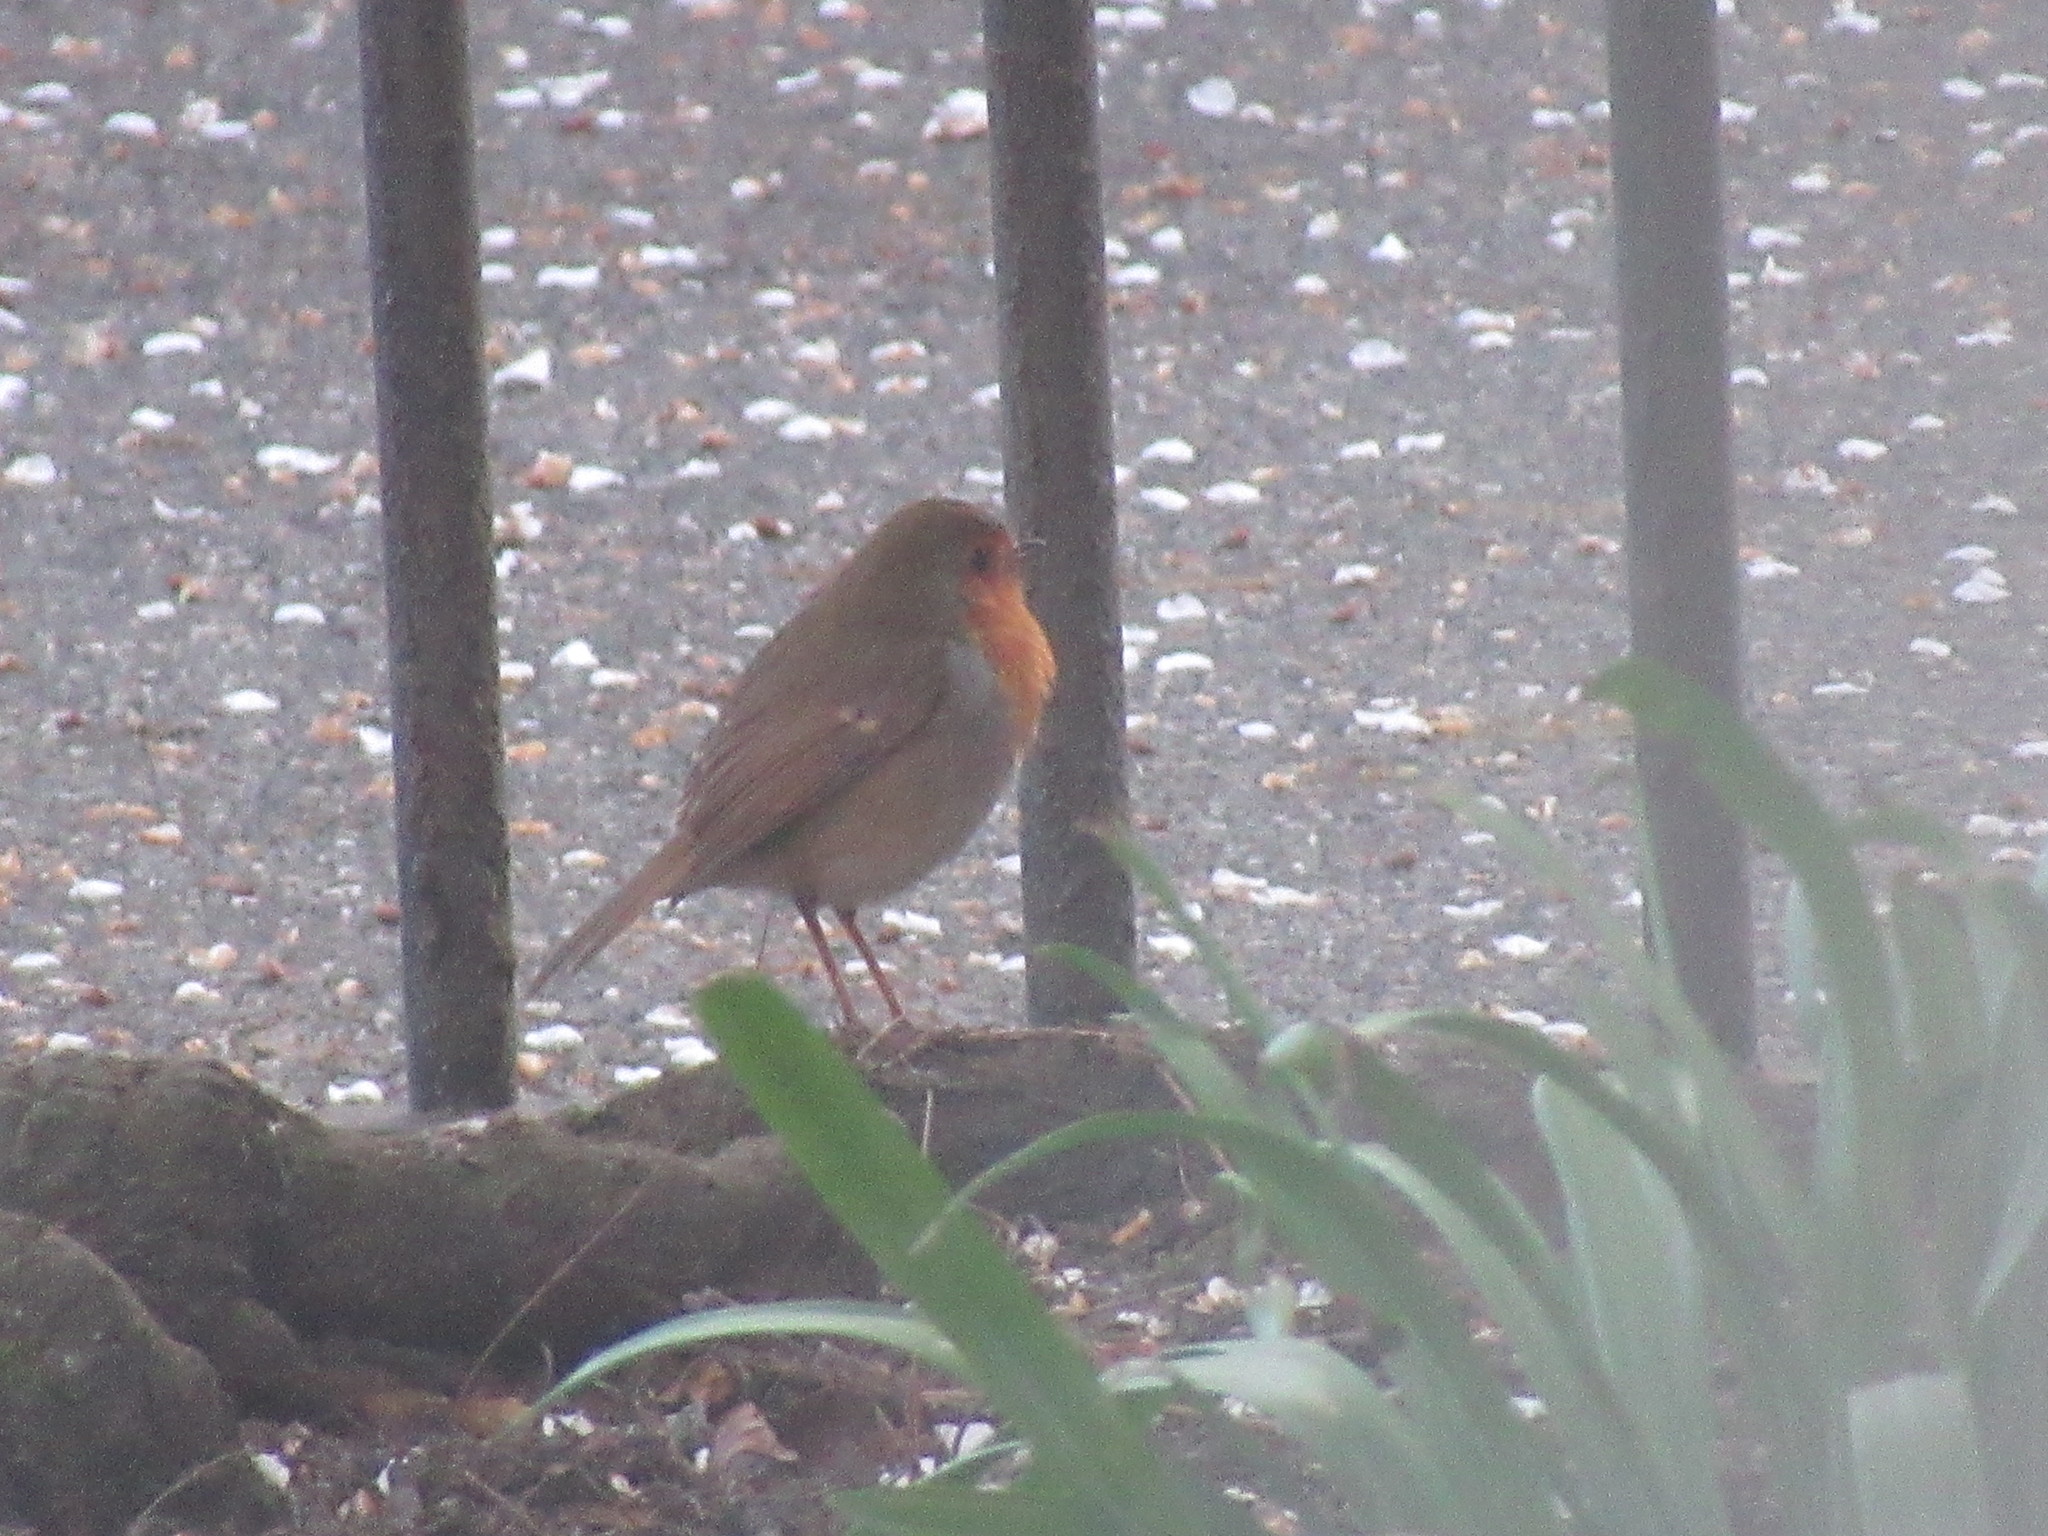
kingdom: Animalia
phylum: Chordata
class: Aves
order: Passeriformes
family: Muscicapidae
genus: Erithacus
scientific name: Erithacus rubecula
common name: European robin
